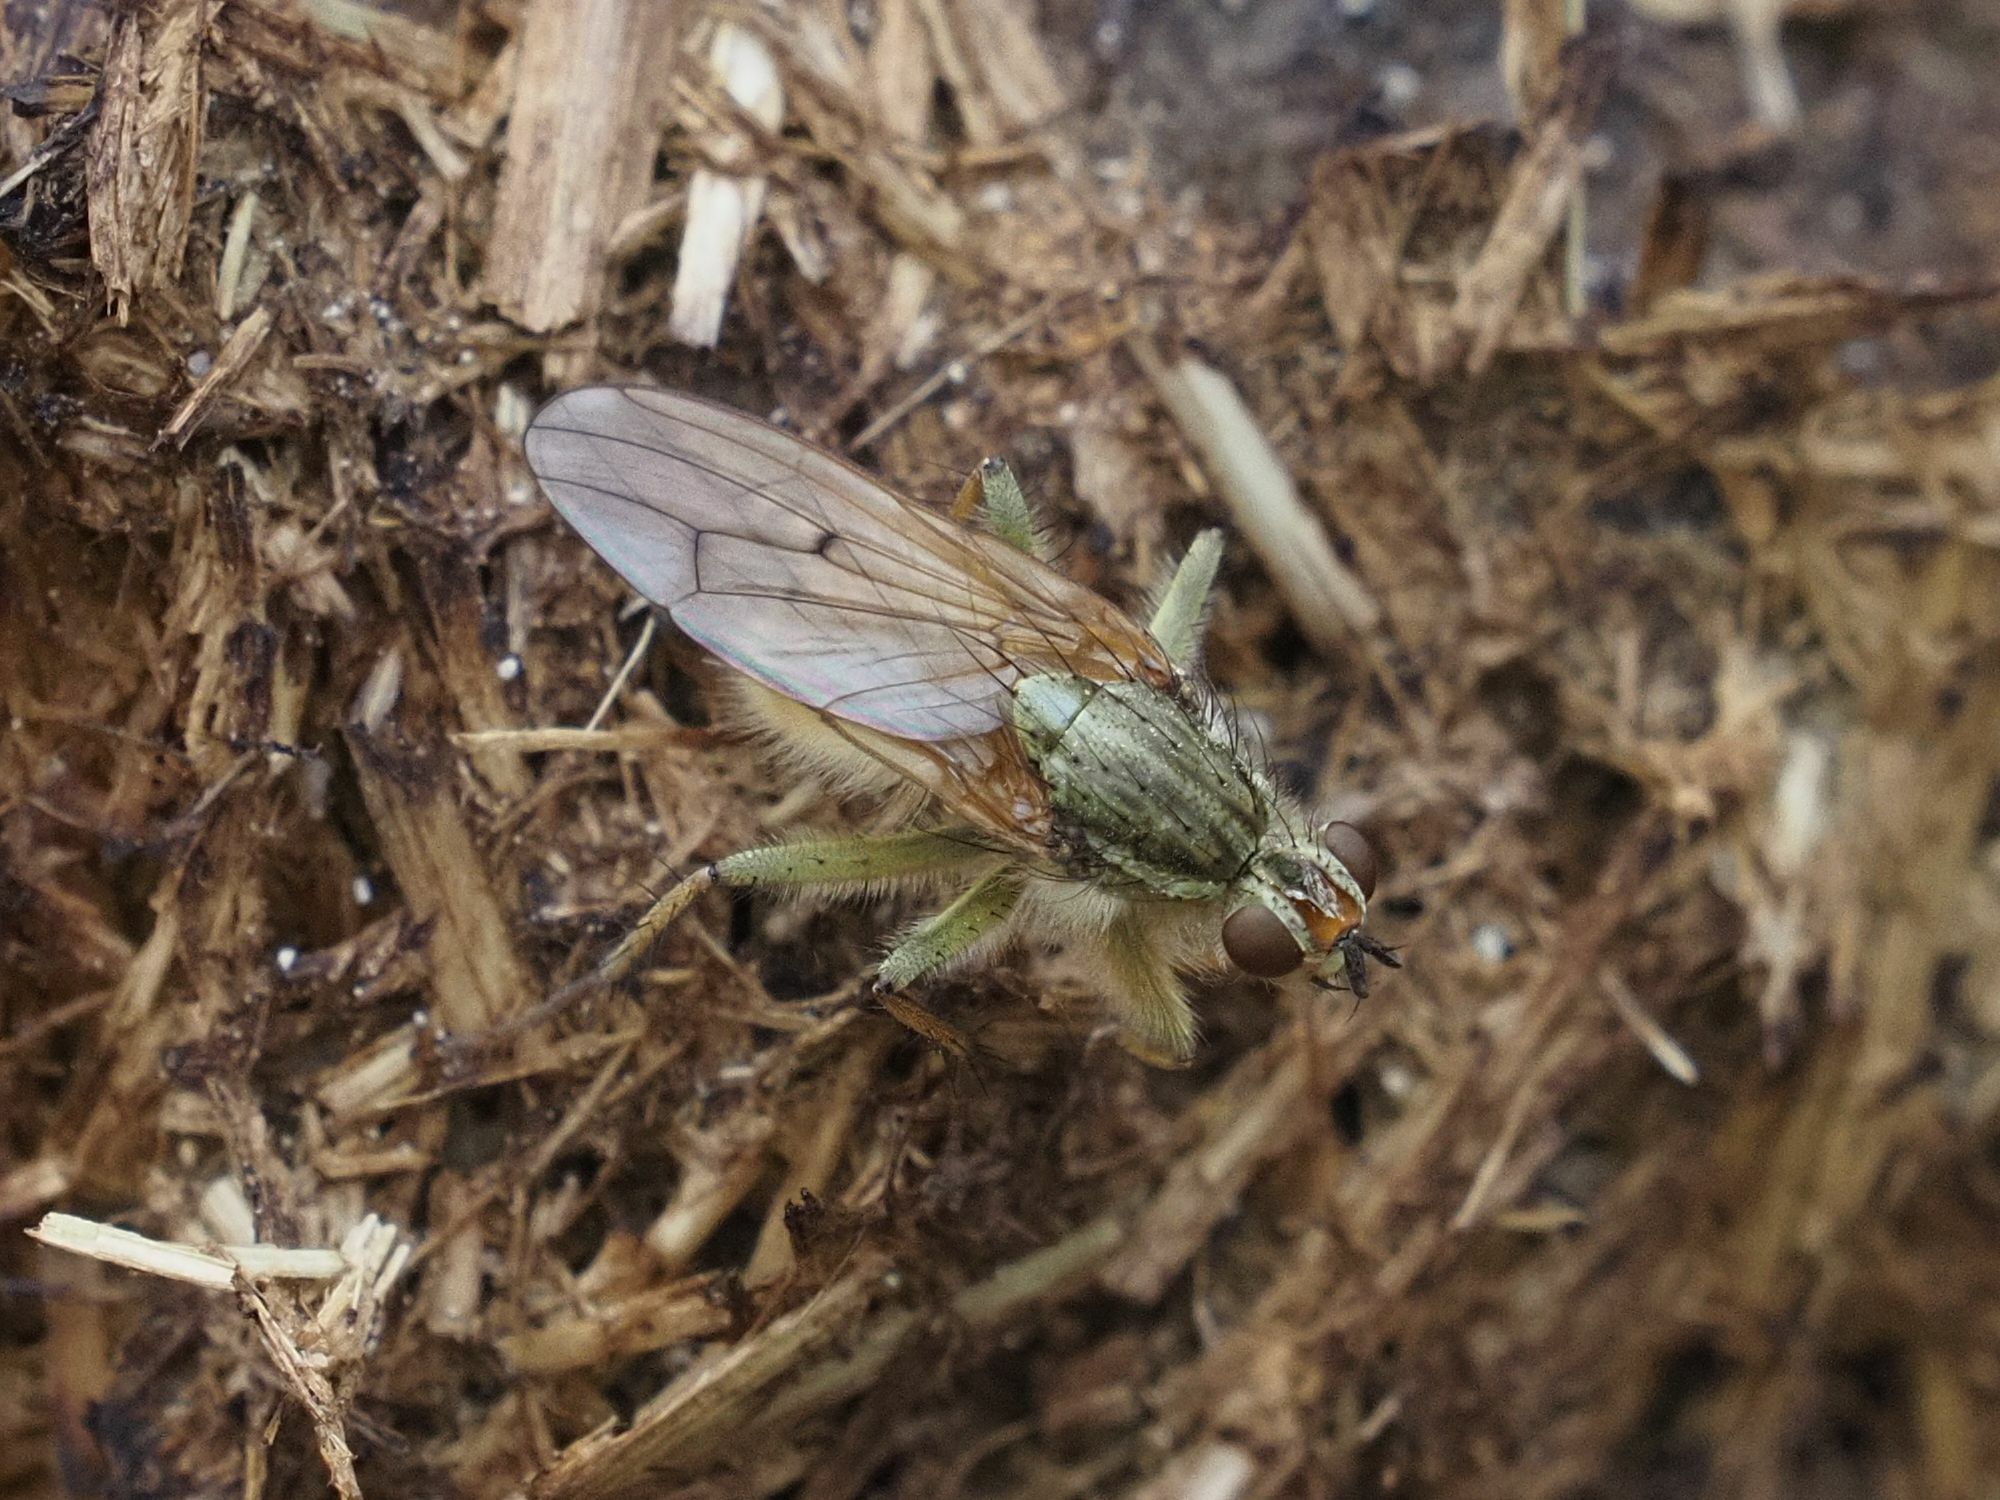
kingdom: Animalia
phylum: Arthropoda
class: Insecta
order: Diptera
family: Scathophagidae
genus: Scathophaga
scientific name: Scathophaga stercoraria
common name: Yellow dung fly
